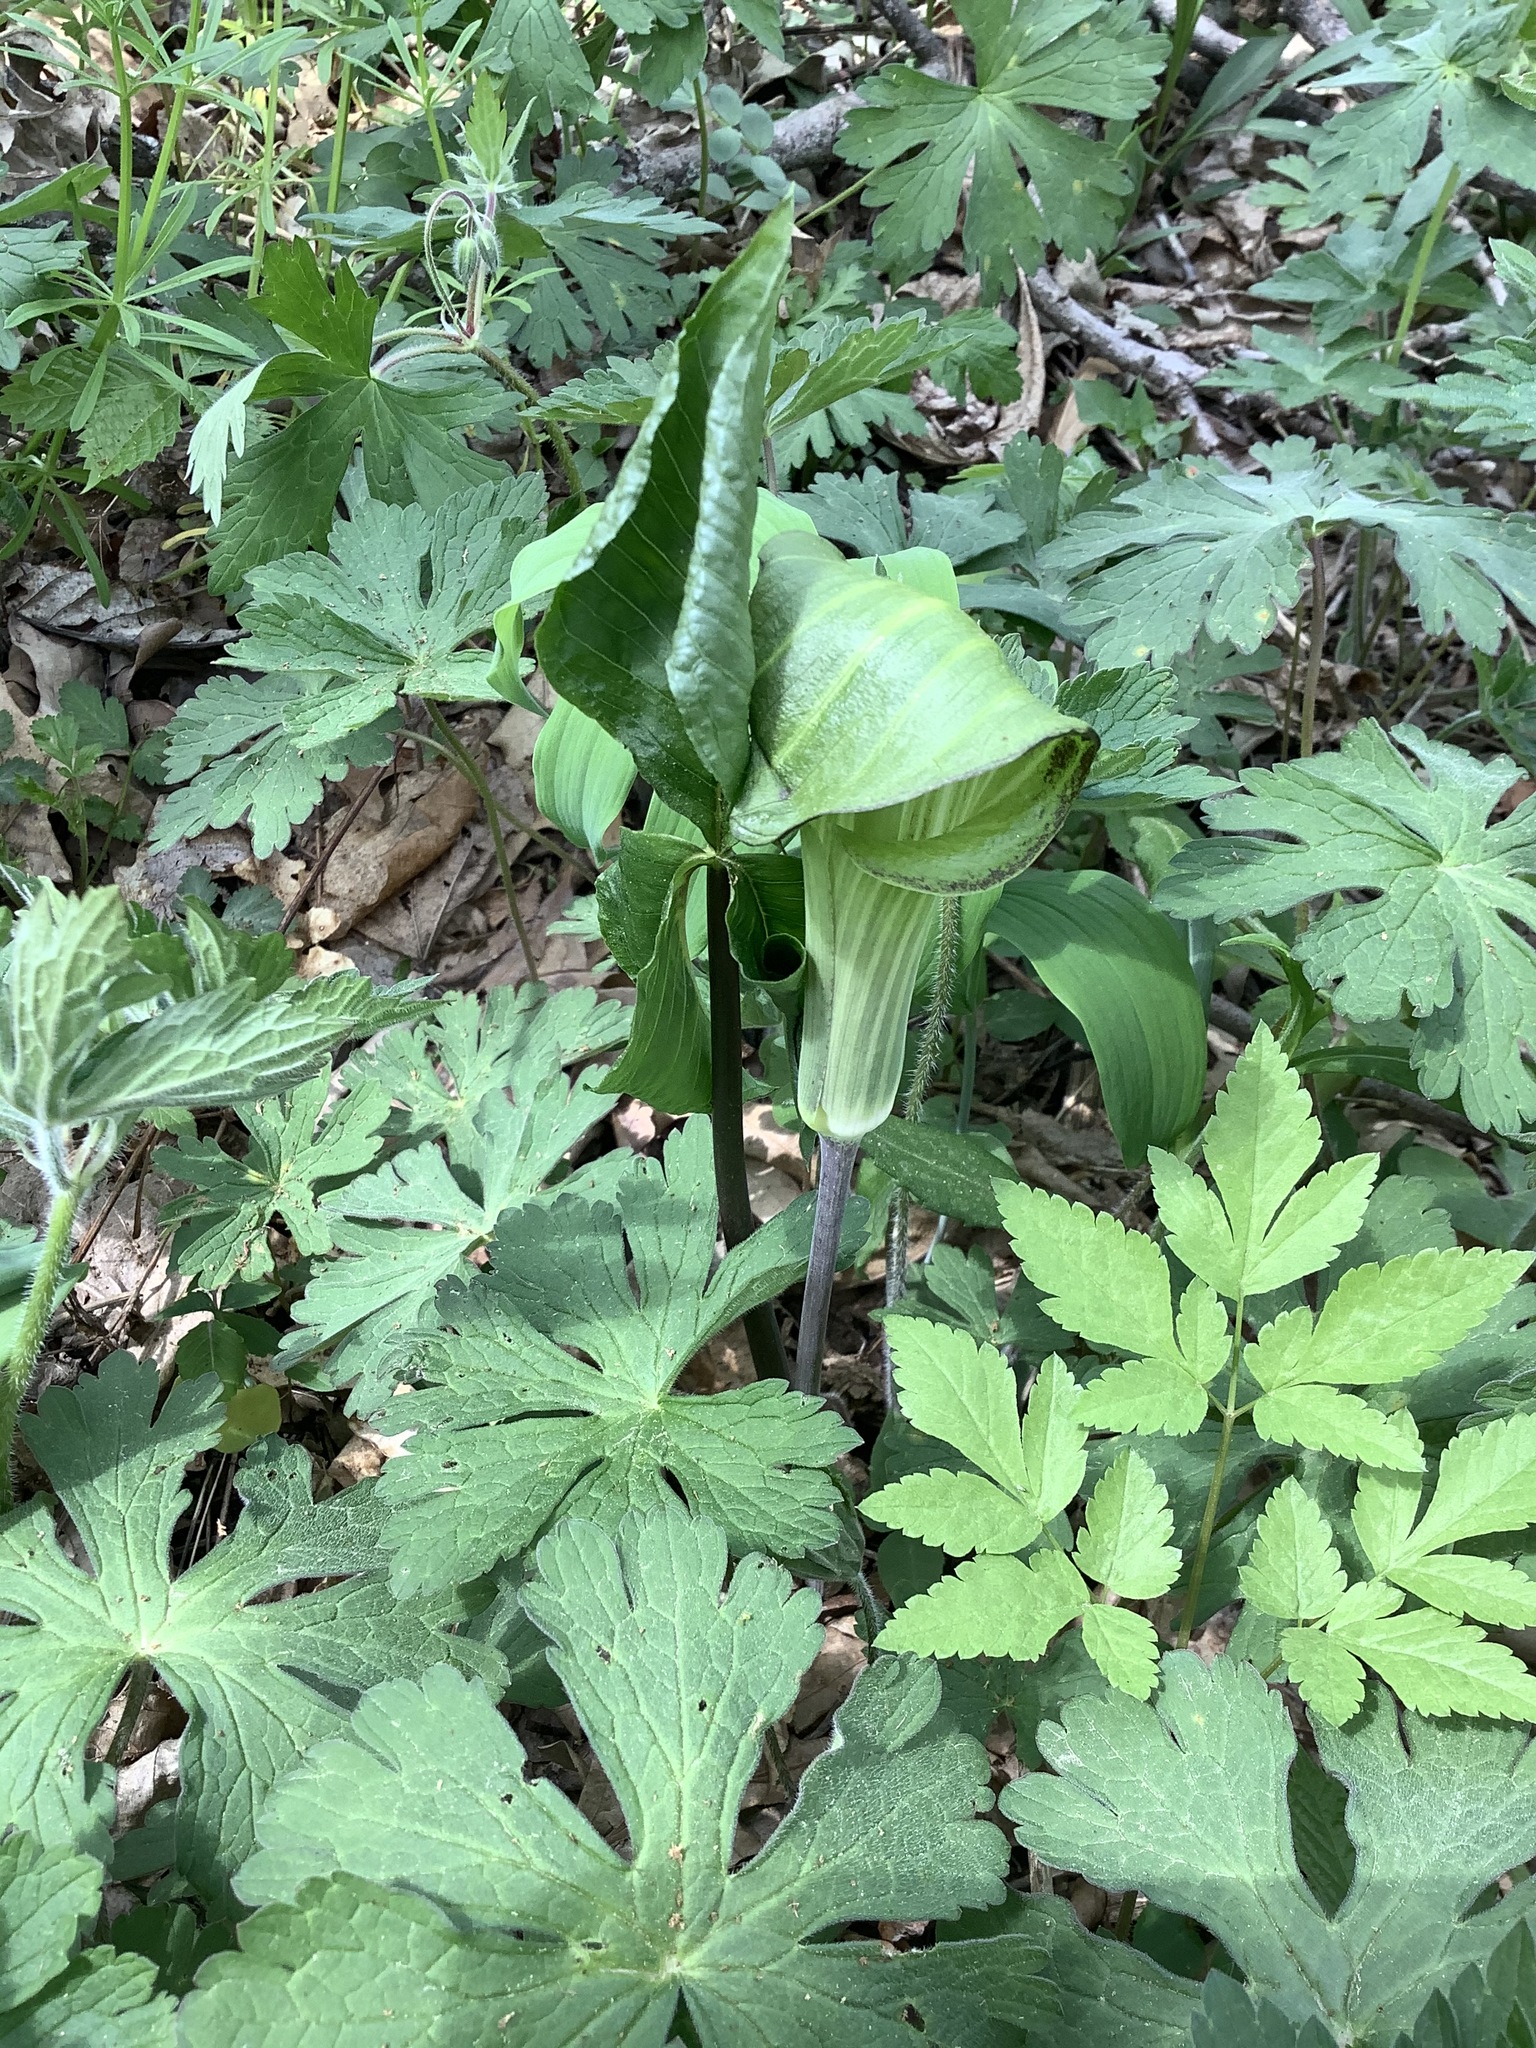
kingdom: Plantae
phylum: Tracheophyta
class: Liliopsida
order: Alismatales
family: Araceae
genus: Arisaema
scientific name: Arisaema triphyllum
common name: Jack-in-the-pulpit
